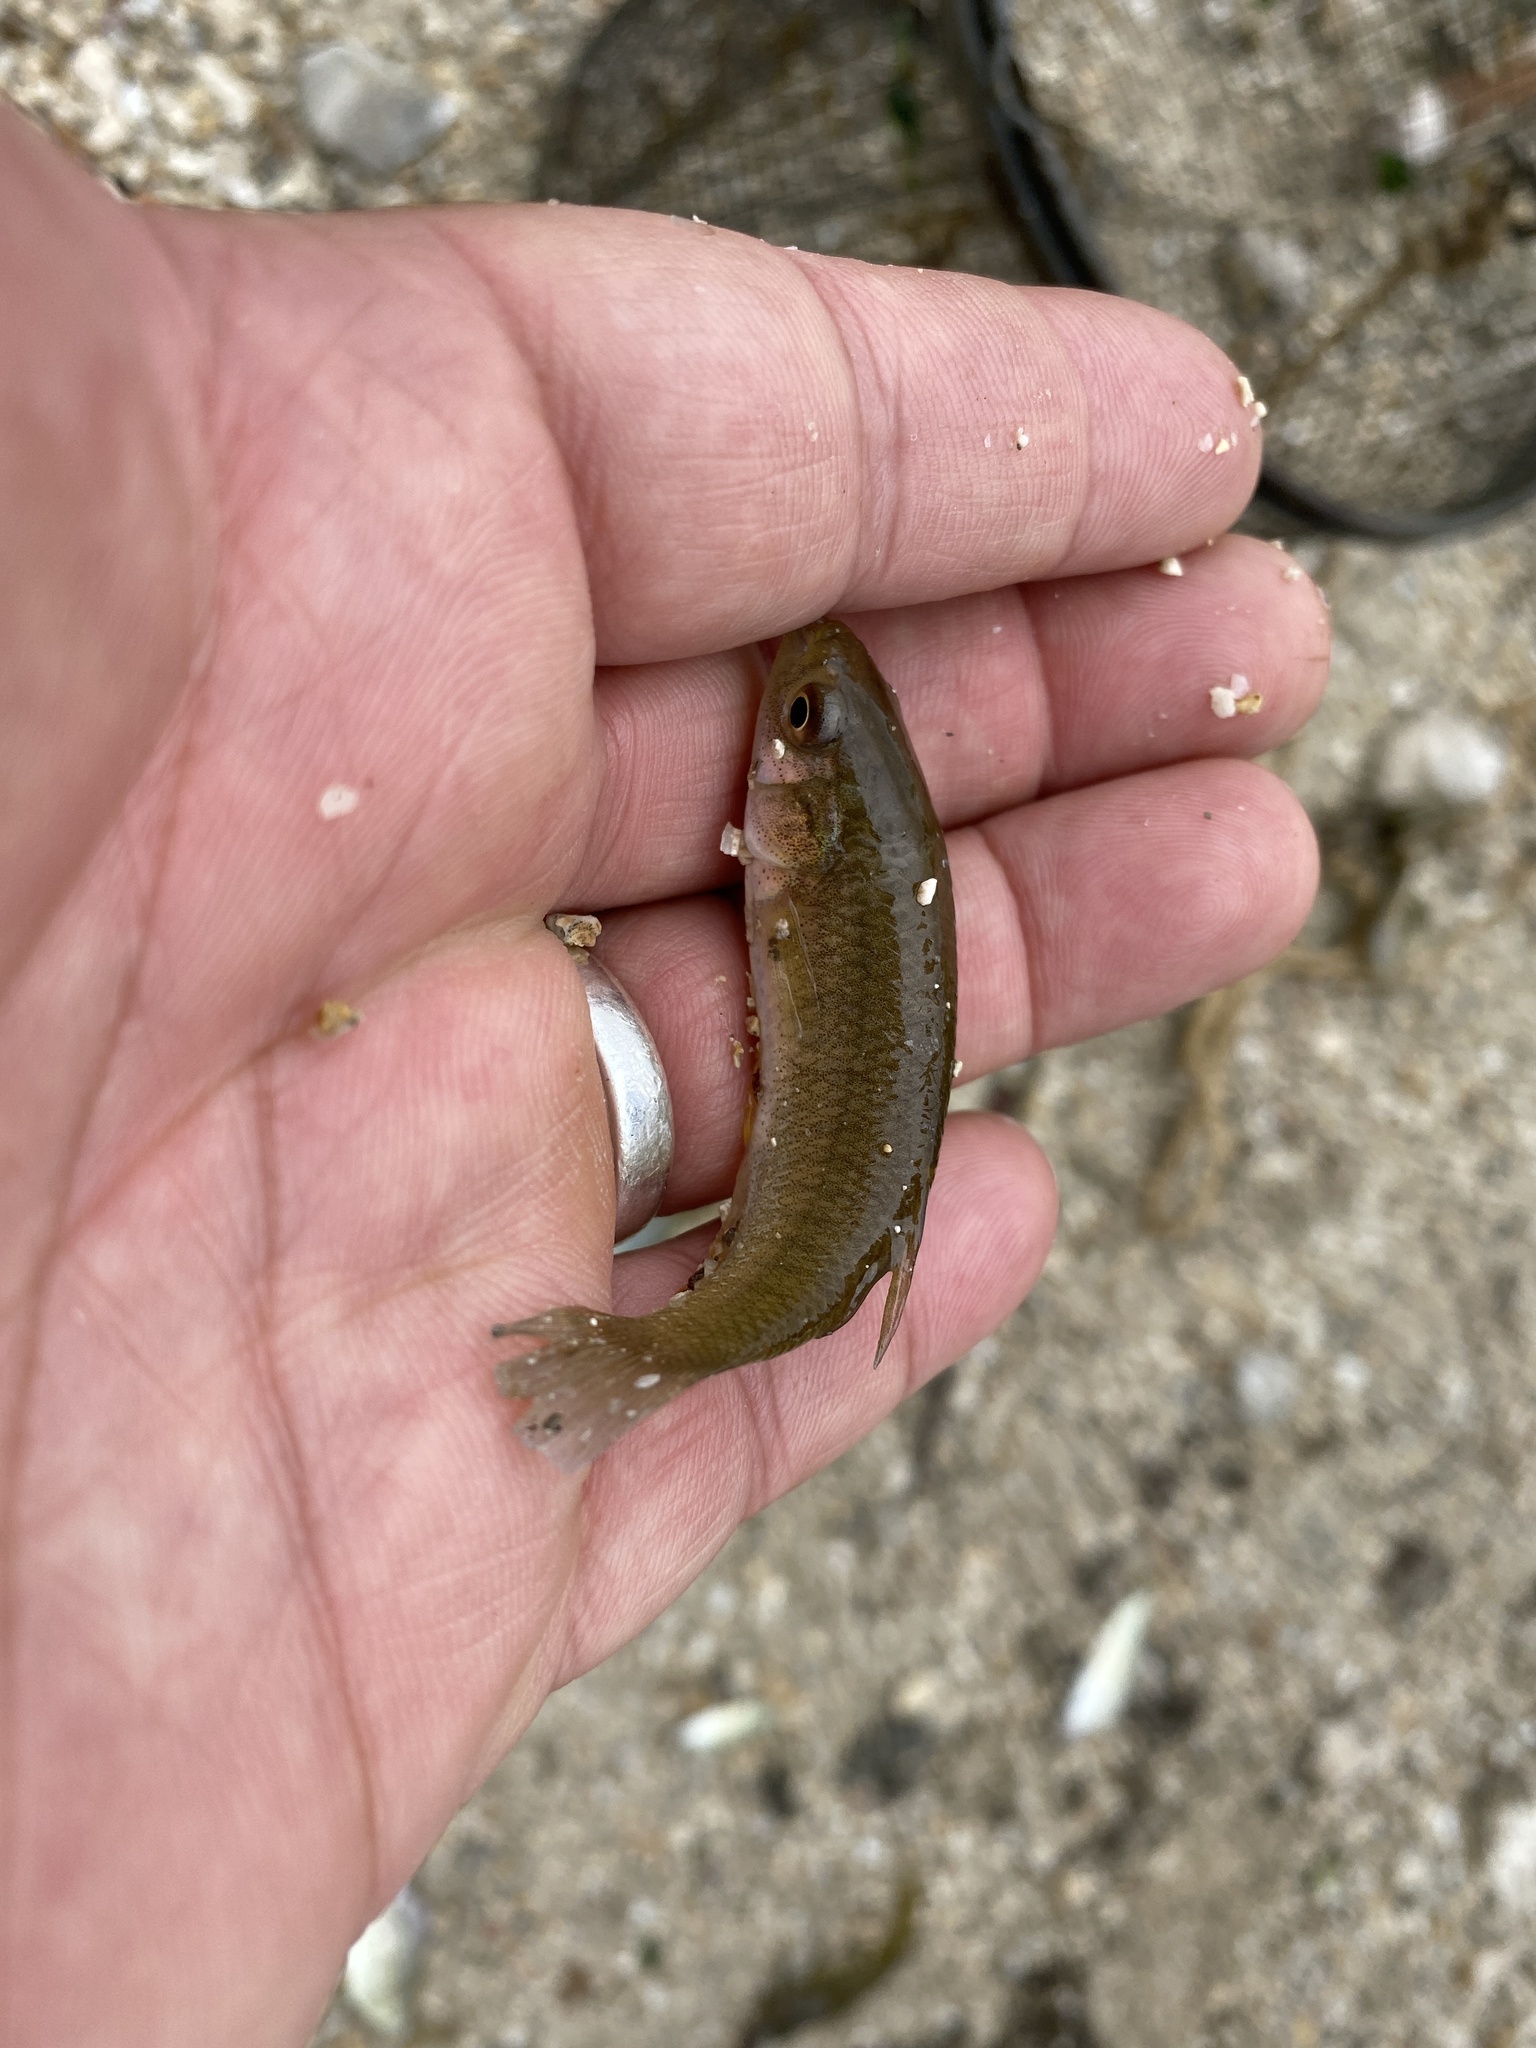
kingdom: Animalia
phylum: Chordata
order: Cyprinodontiformes
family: Fundulidae
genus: Fundulus
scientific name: Fundulus grandis
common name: Gulf killifish
